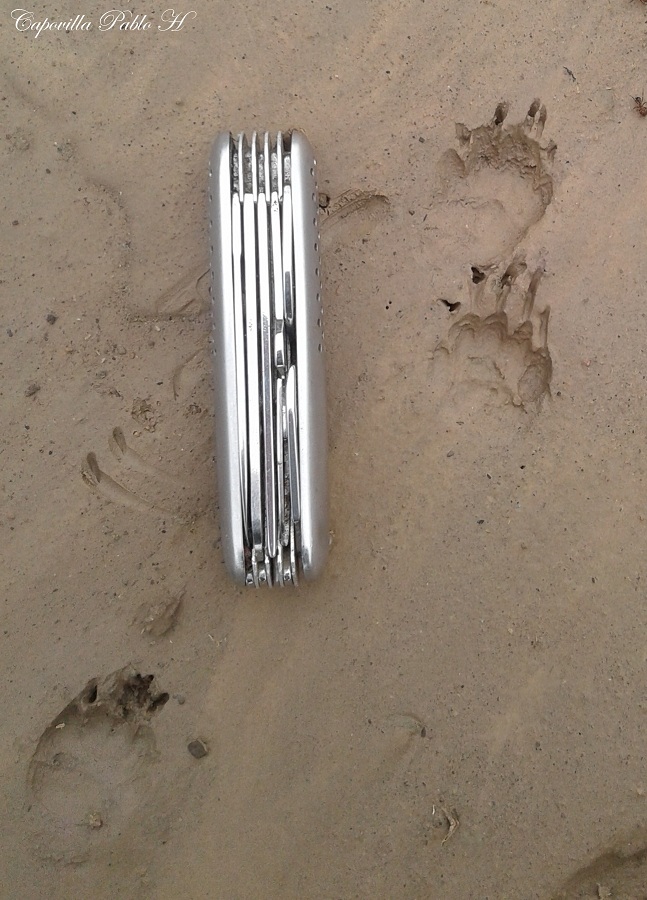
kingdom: Animalia
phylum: Chordata
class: Mammalia
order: Carnivora
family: Mephitidae
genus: Conepatus
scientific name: Conepatus chinga
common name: Molina's hog-nosed skunk
